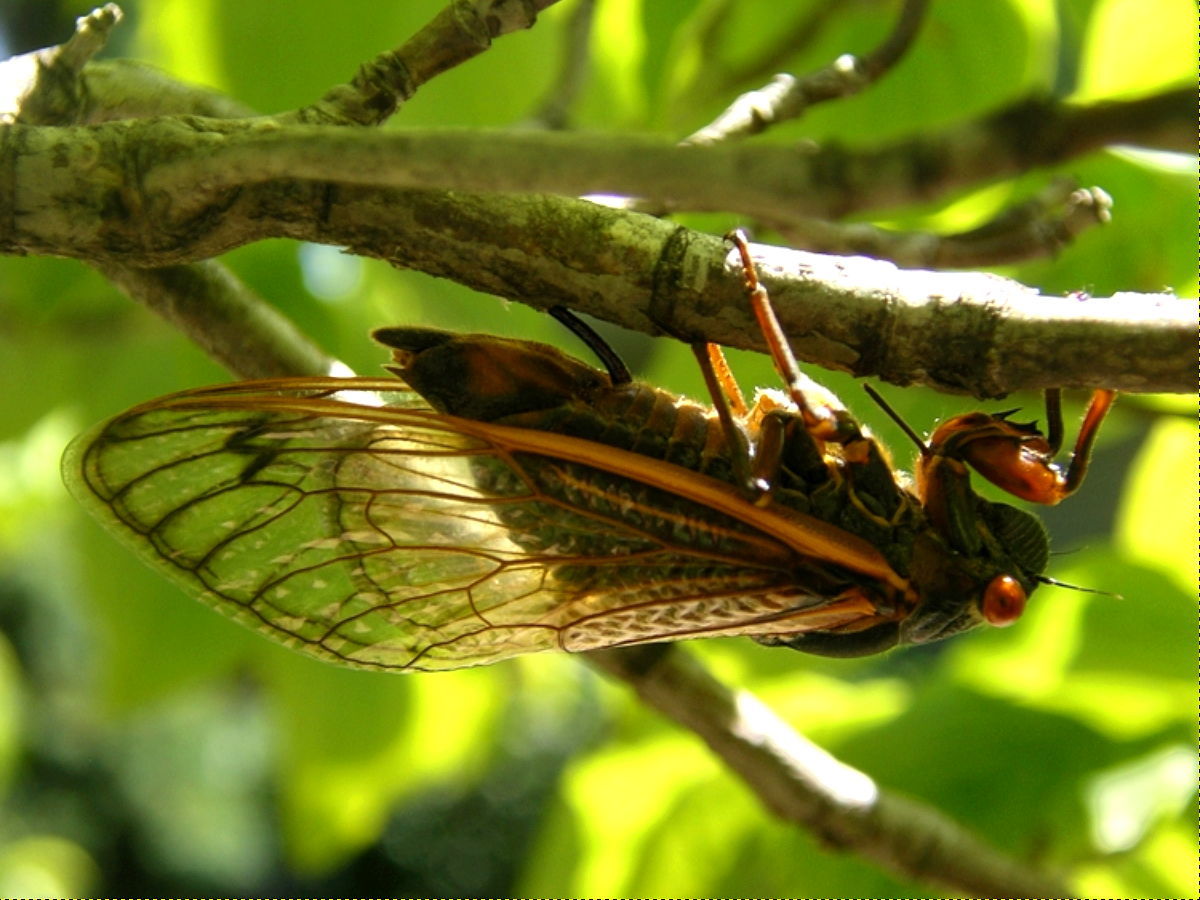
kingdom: Animalia
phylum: Arthropoda
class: Insecta
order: Hemiptera
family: Cicadidae
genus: Magicicada
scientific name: Magicicada septendecim
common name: Periodical cicada
